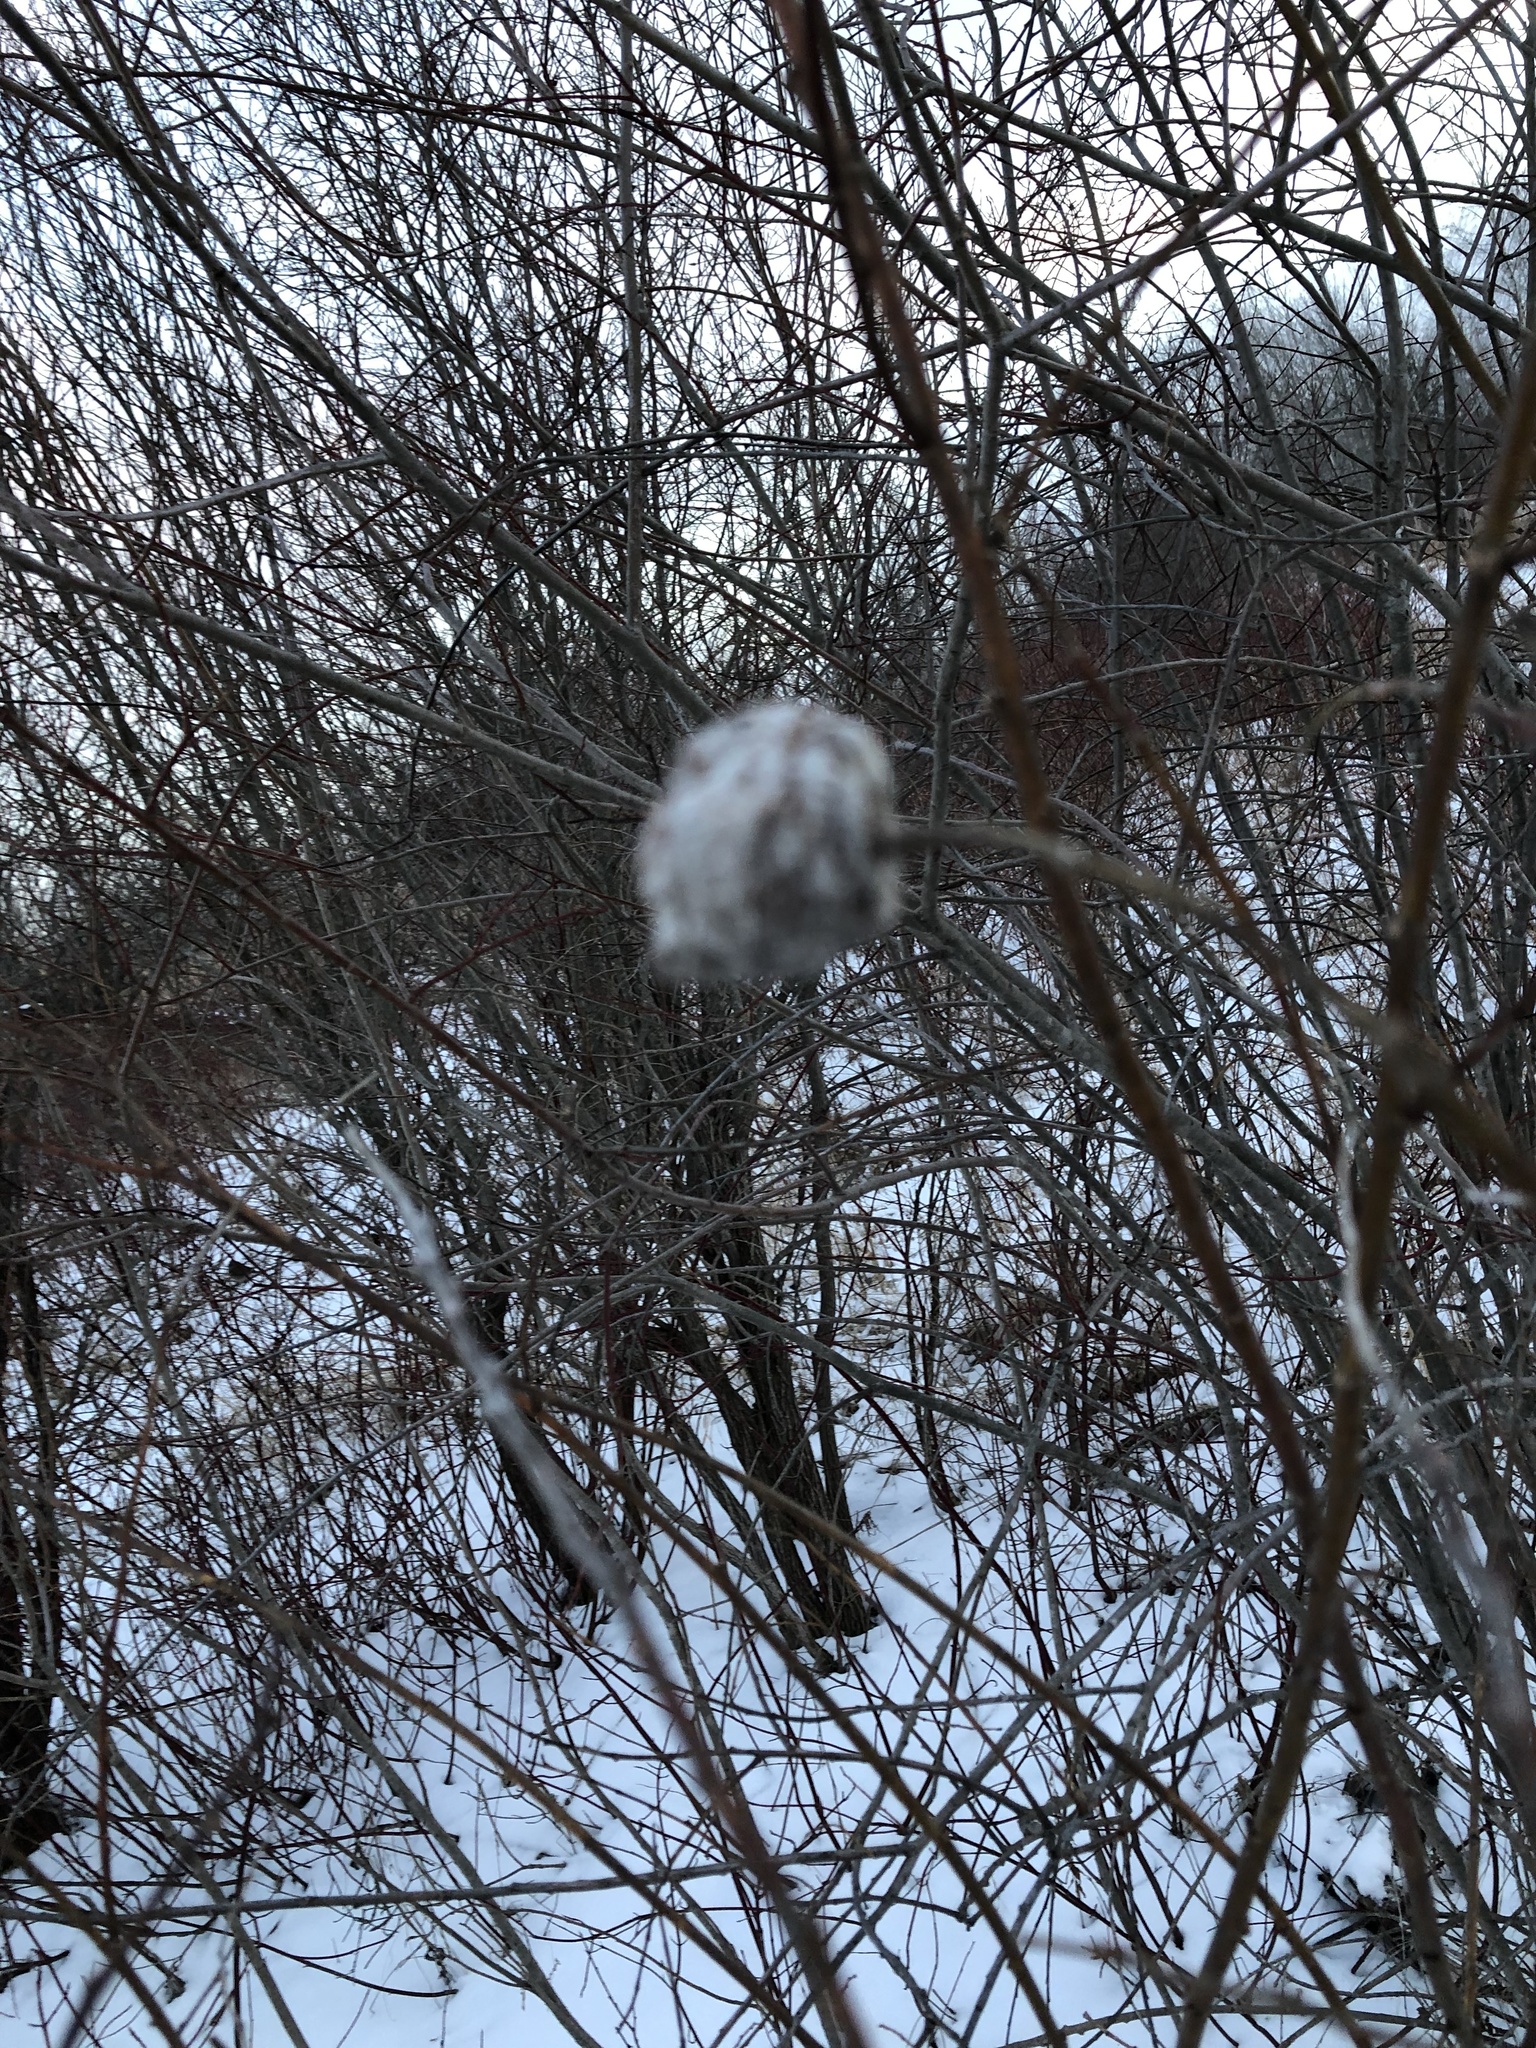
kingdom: Animalia
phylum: Arthropoda
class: Insecta
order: Diptera
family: Cecidomyiidae
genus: Rabdophaga
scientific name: Rabdophaga strobiloides
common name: Willow pinecone gall midge
